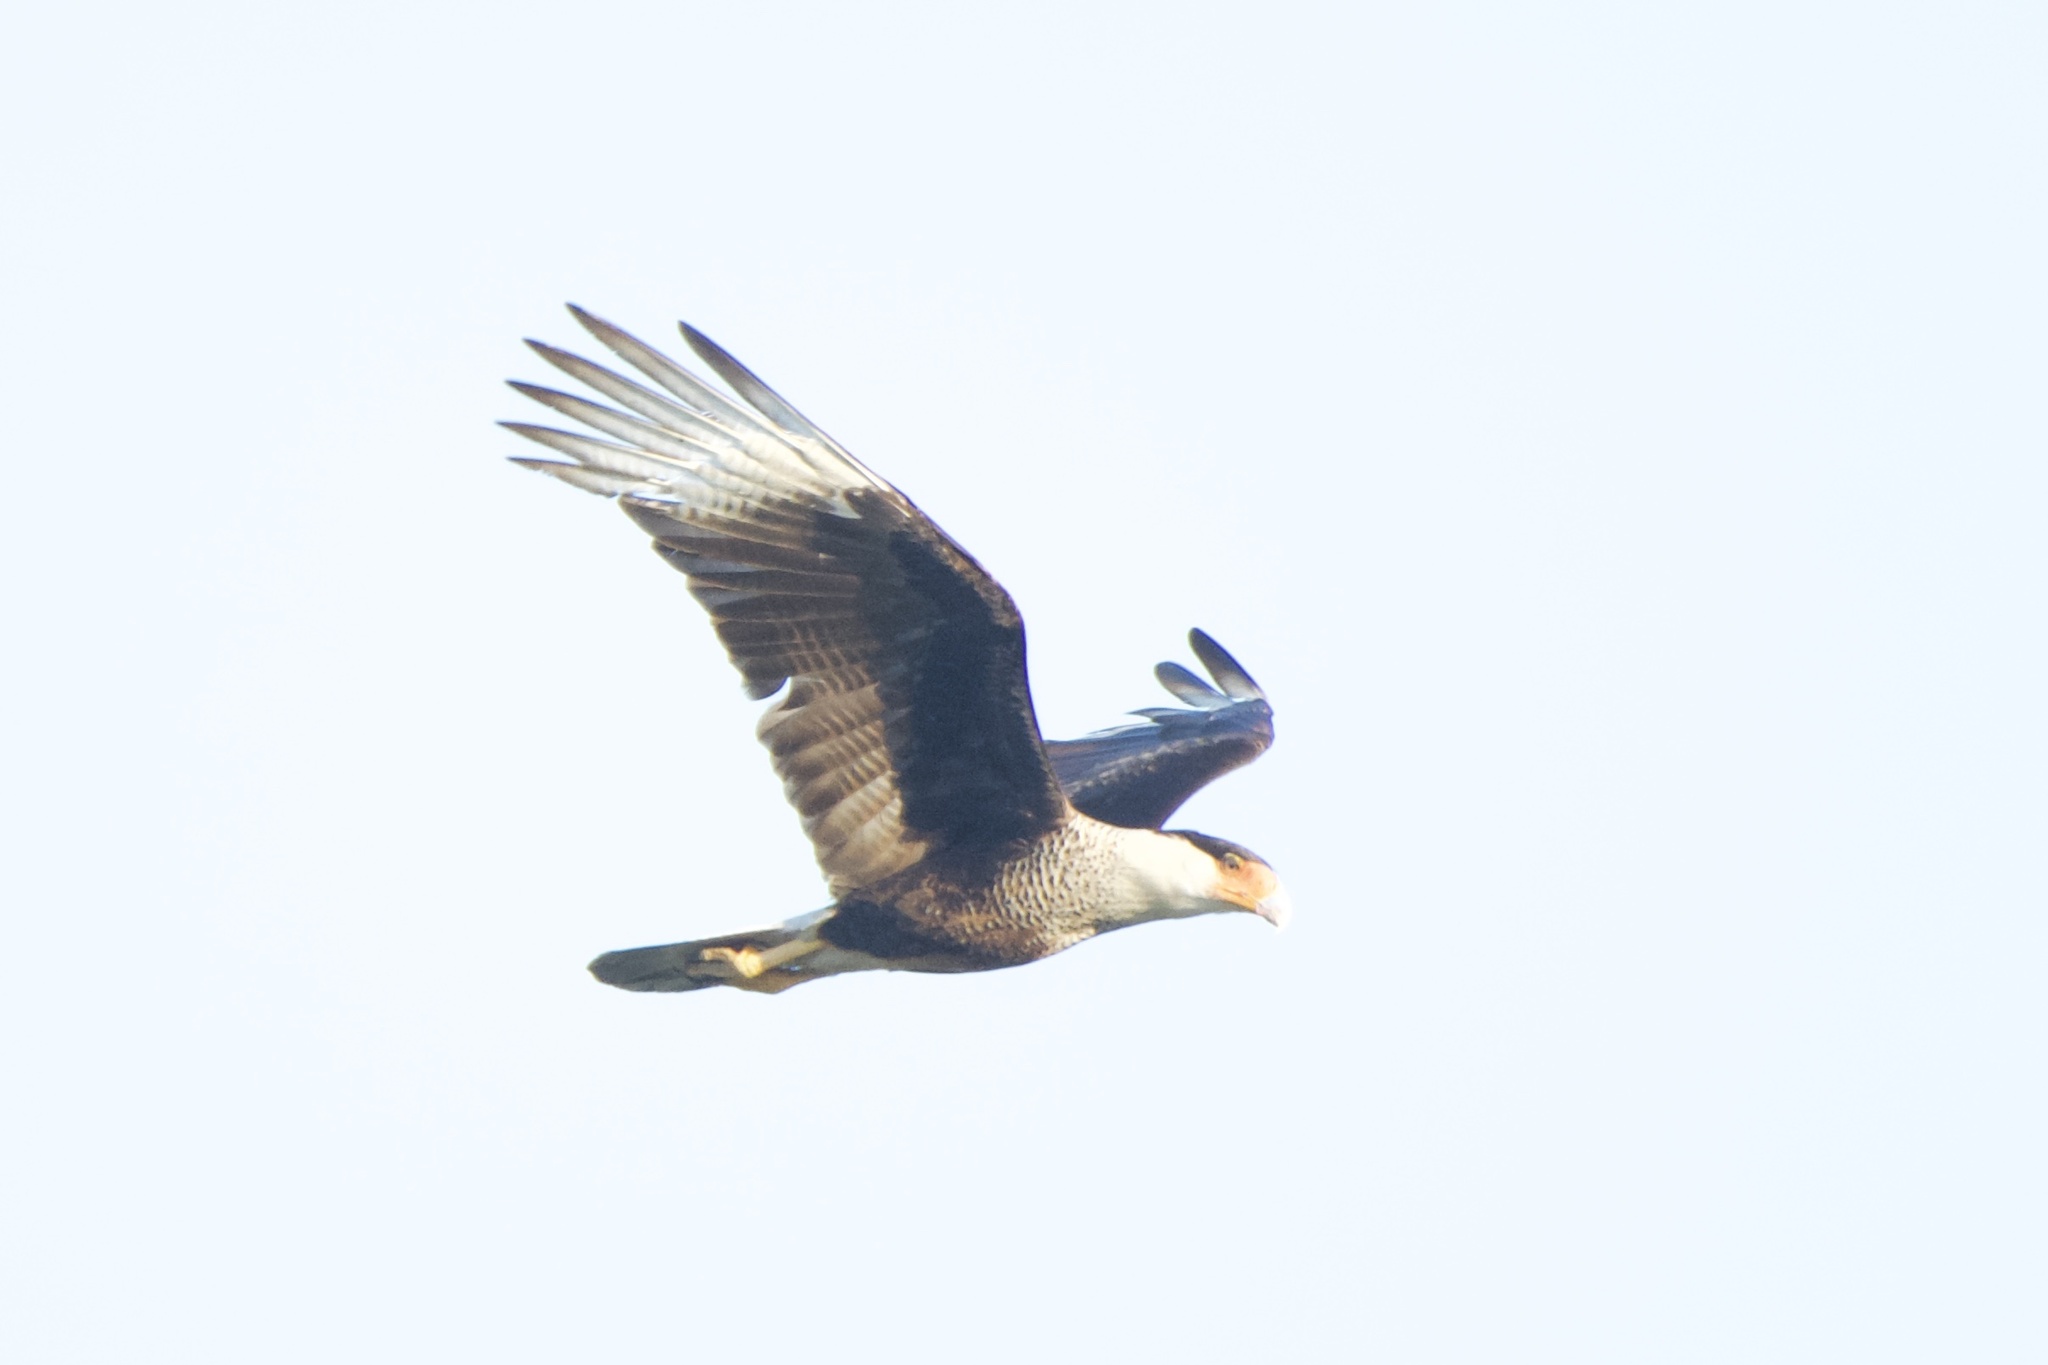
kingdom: Animalia
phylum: Chordata
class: Aves
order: Falconiformes
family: Falconidae
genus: Caracara
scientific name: Caracara plancus
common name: Southern caracara
